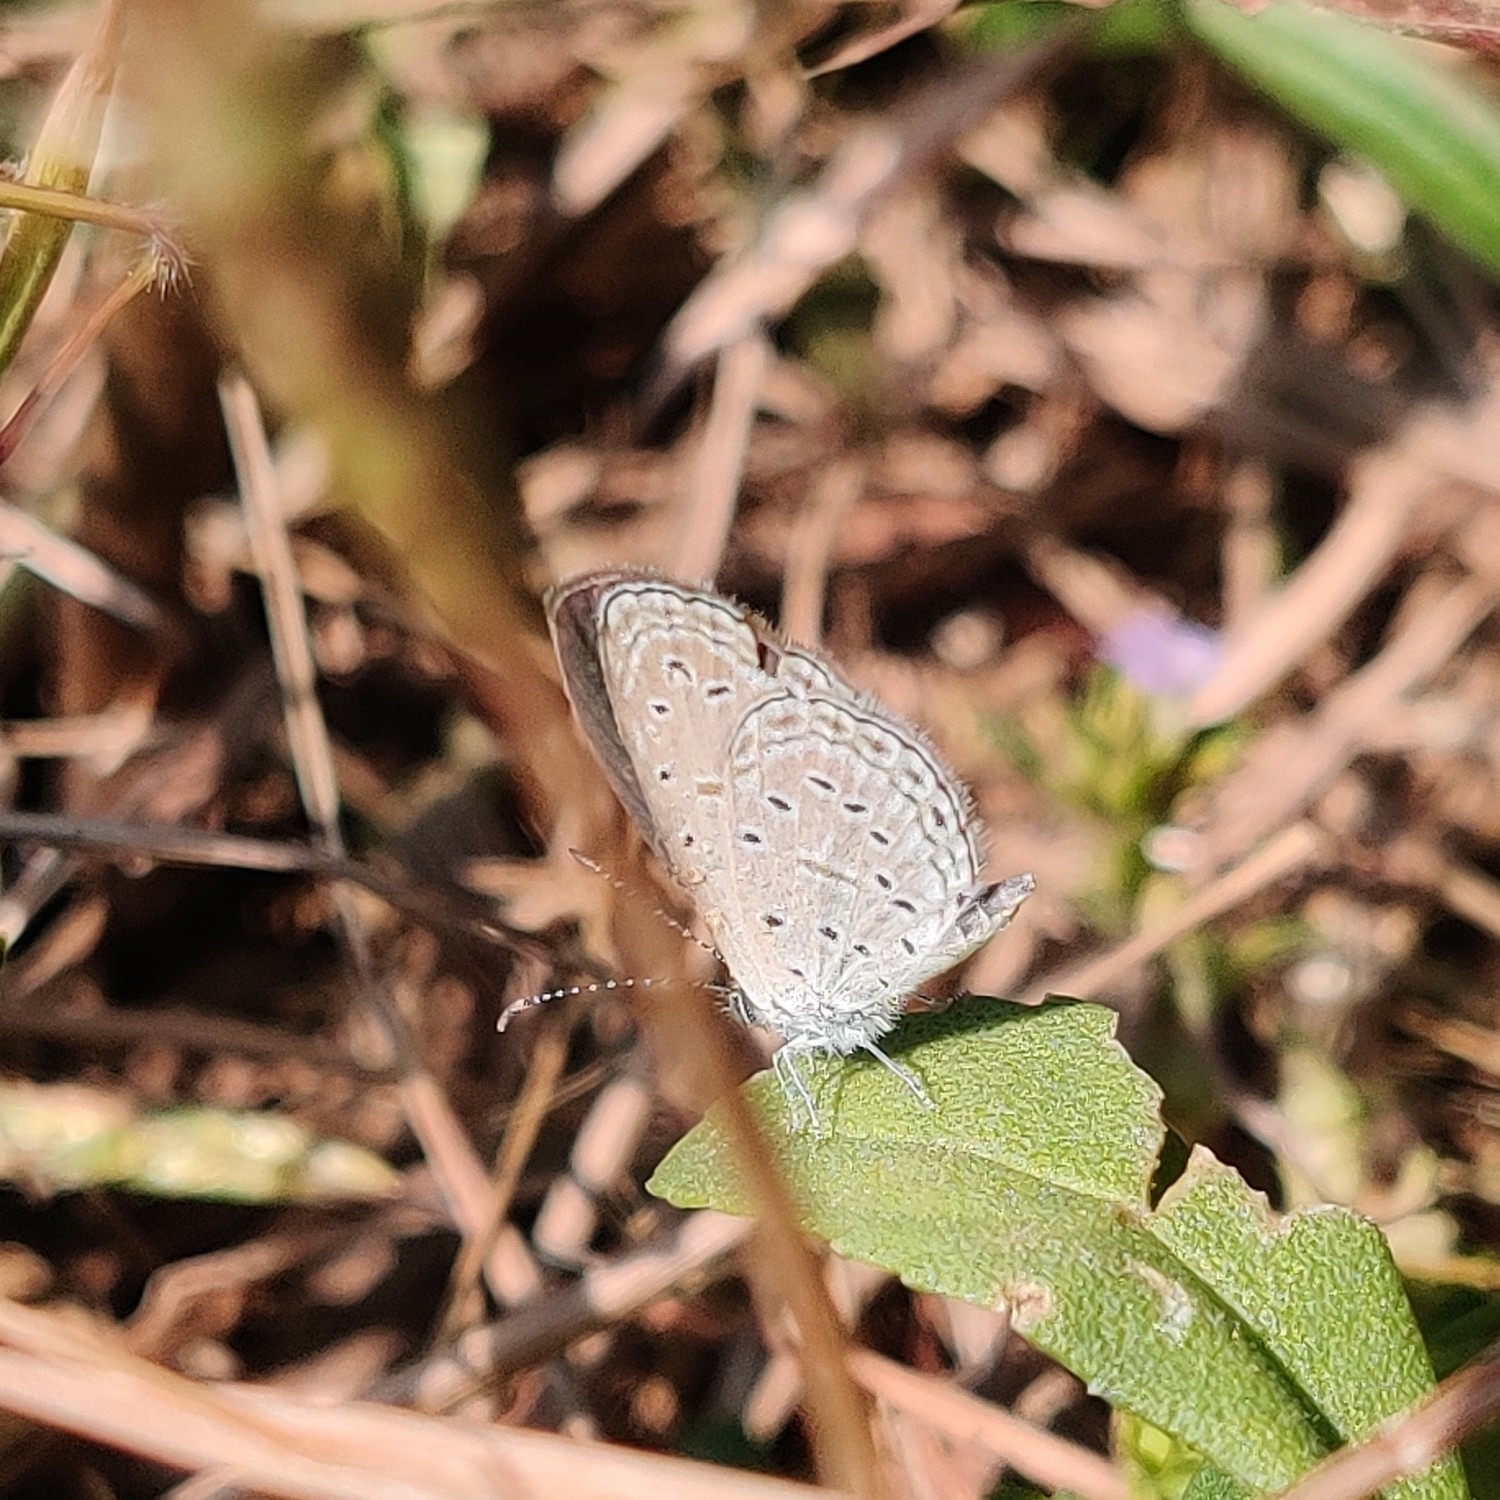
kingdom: Animalia
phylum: Arthropoda
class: Insecta
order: Lepidoptera
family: Lycaenidae
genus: Zizula
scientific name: Zizula hylax
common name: Gaika blue
